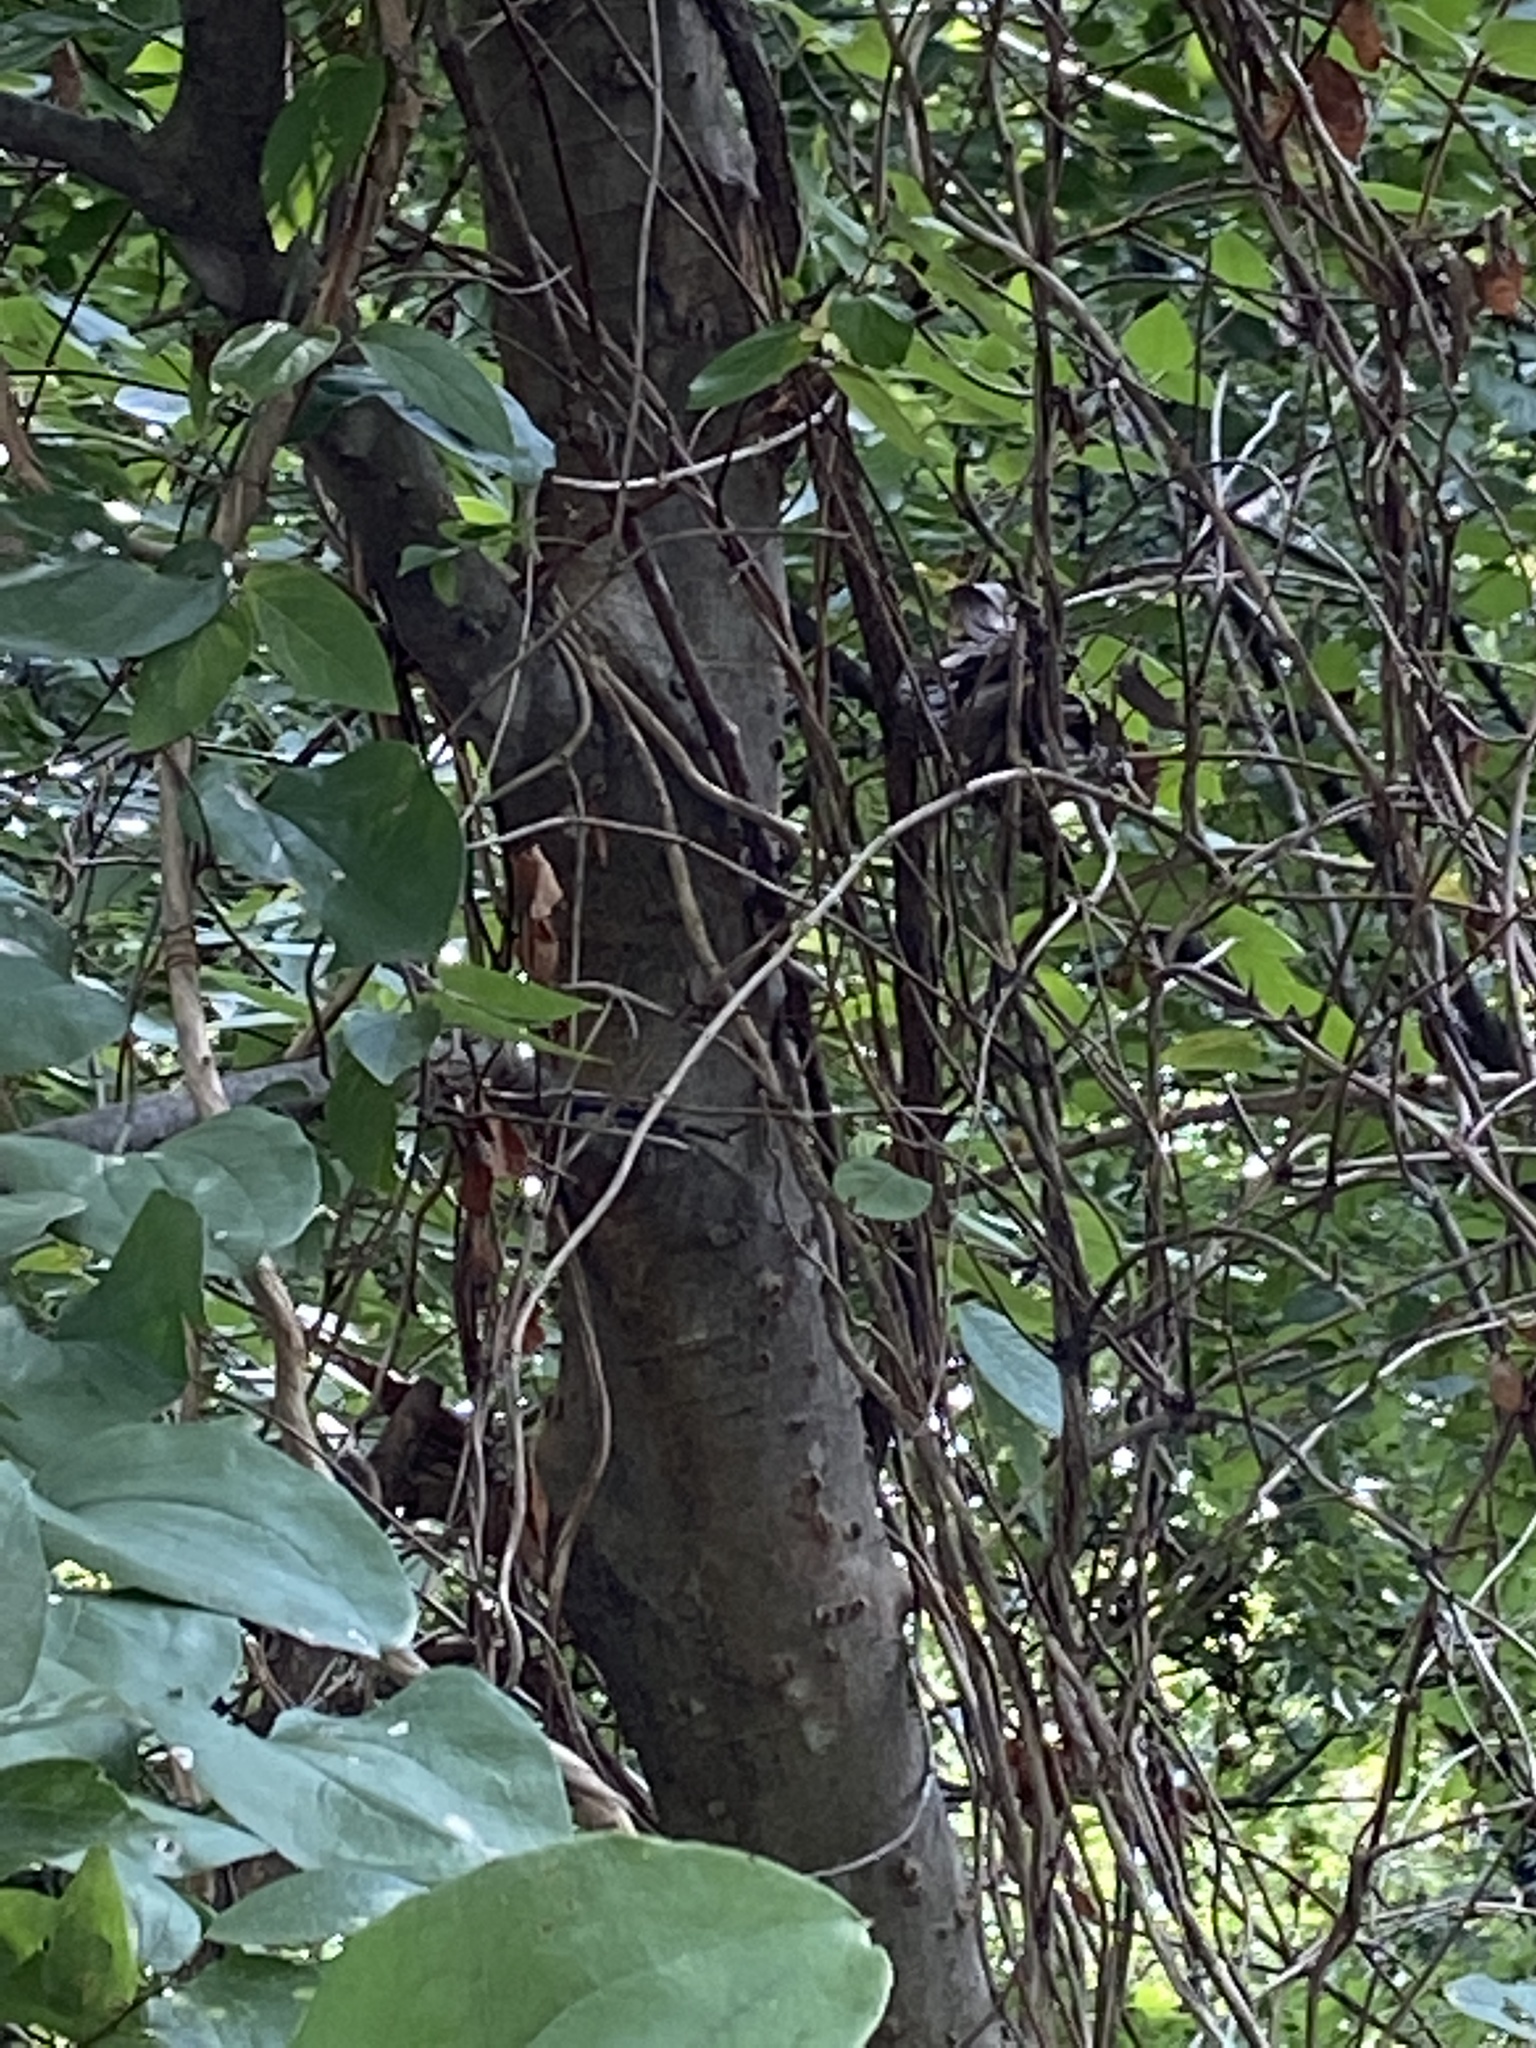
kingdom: Plantae
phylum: Tracheophyta
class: Magnoliopsida
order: Rosales
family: Cannabaceae
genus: Celtis
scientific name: Celtis laevigata
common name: Sugarberry
